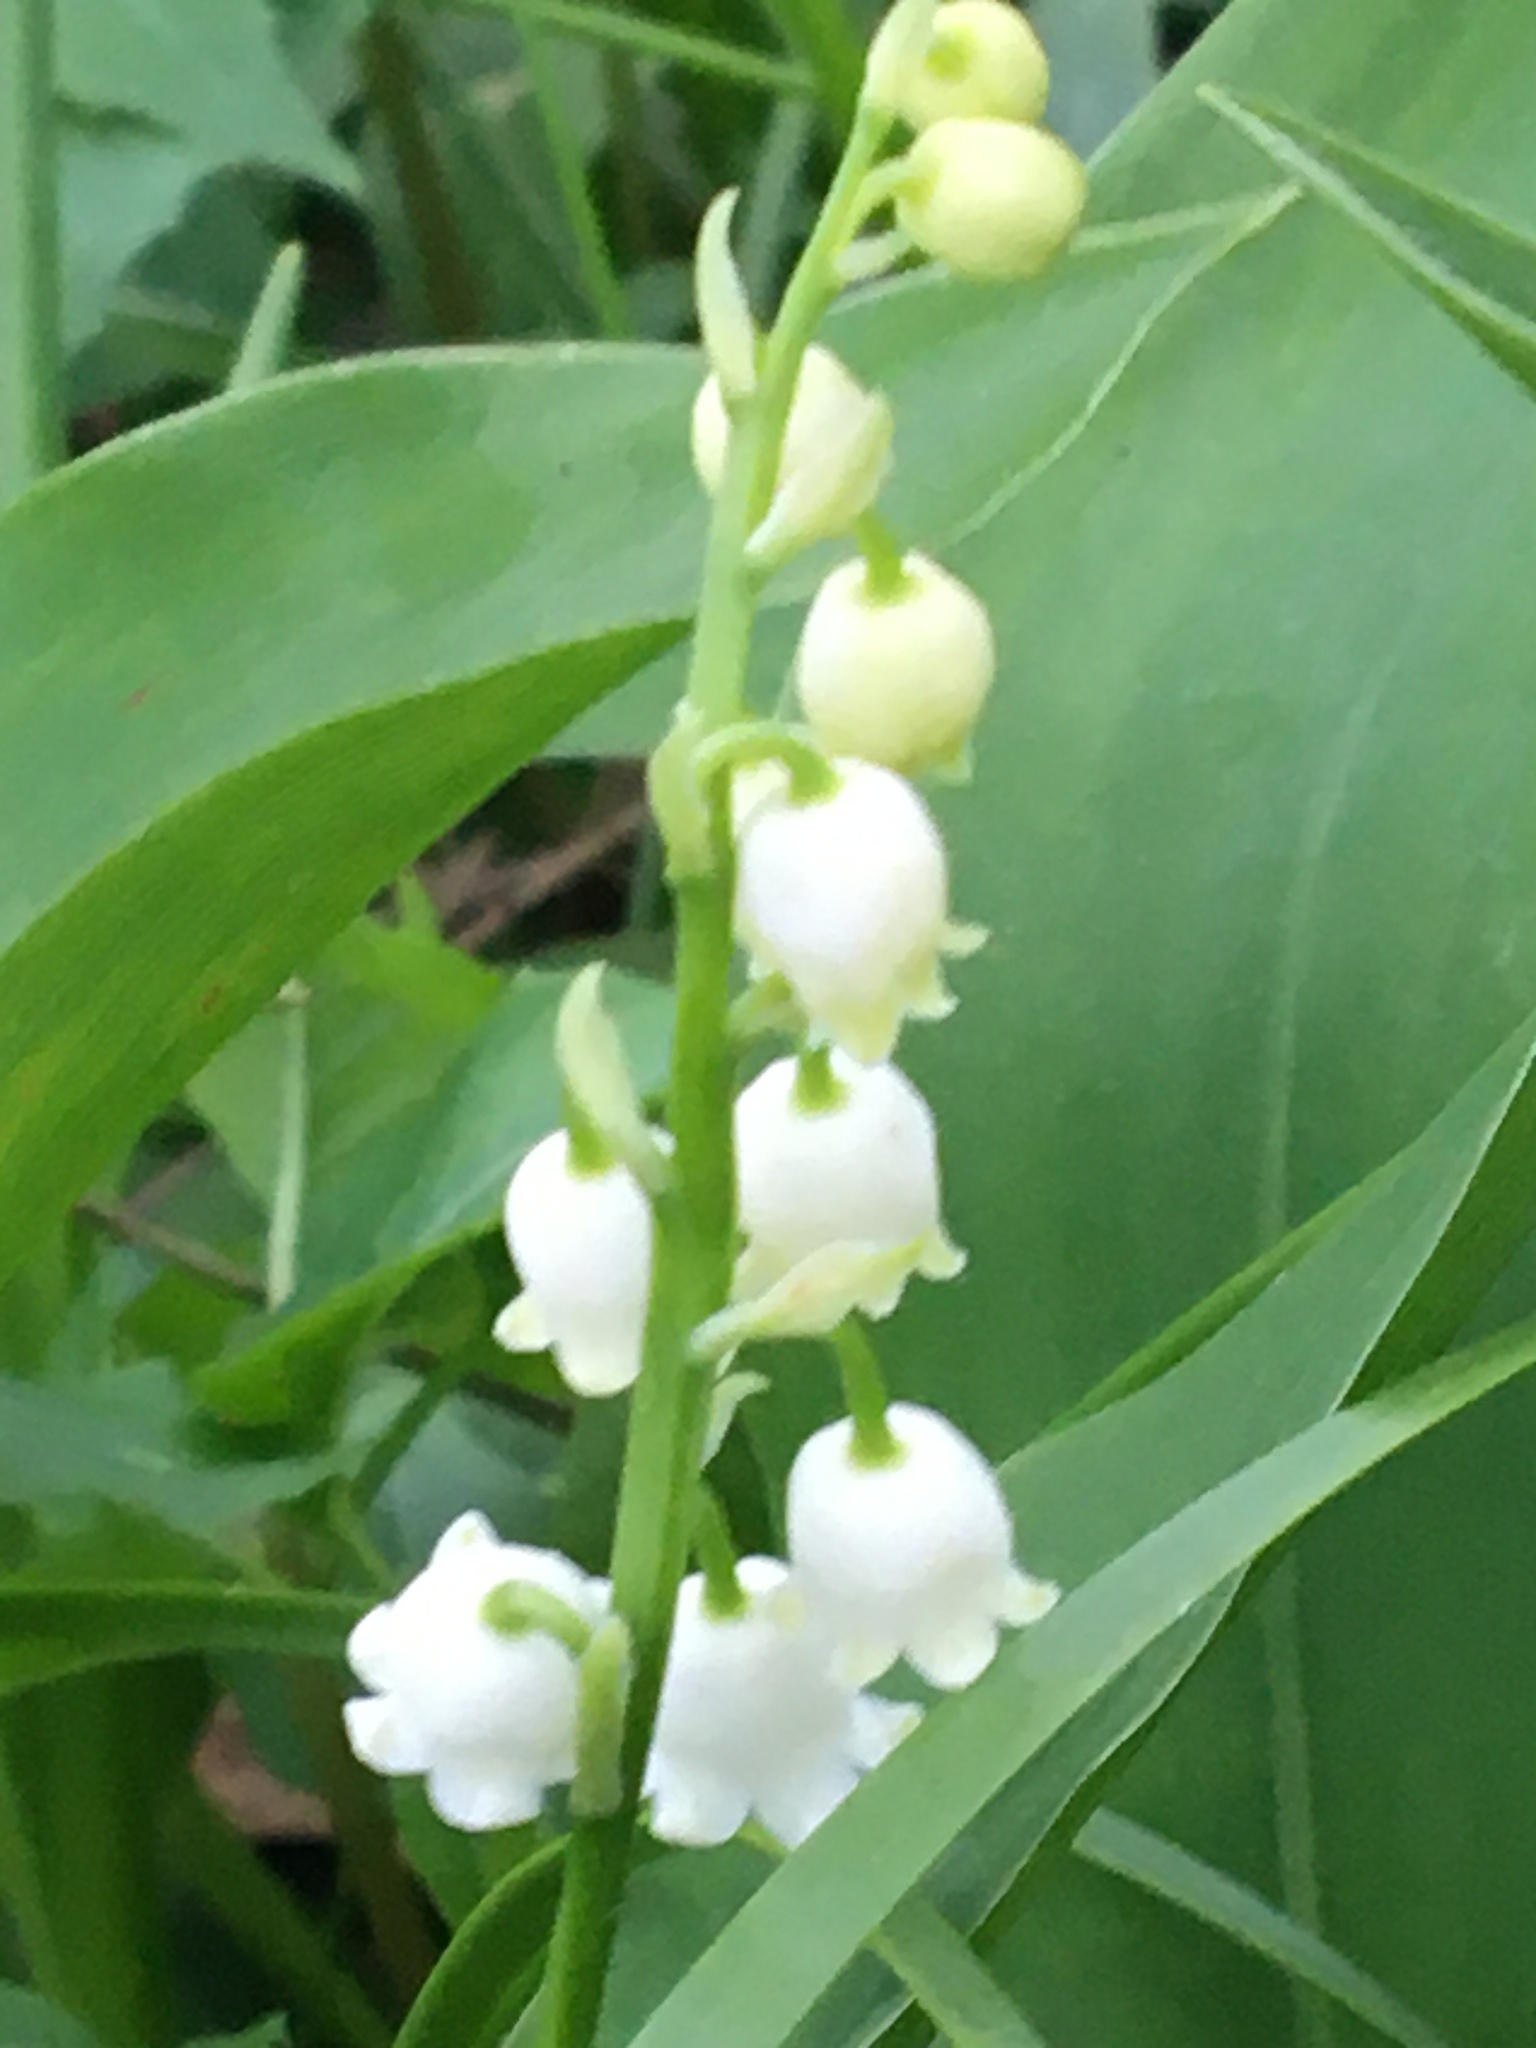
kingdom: Plantae
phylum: Tracheophyta
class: Liliopsida
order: Asparagales
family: Asparagaceae
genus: Convallaria
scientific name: Convallaria majalis
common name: Lily-of-the-valley
